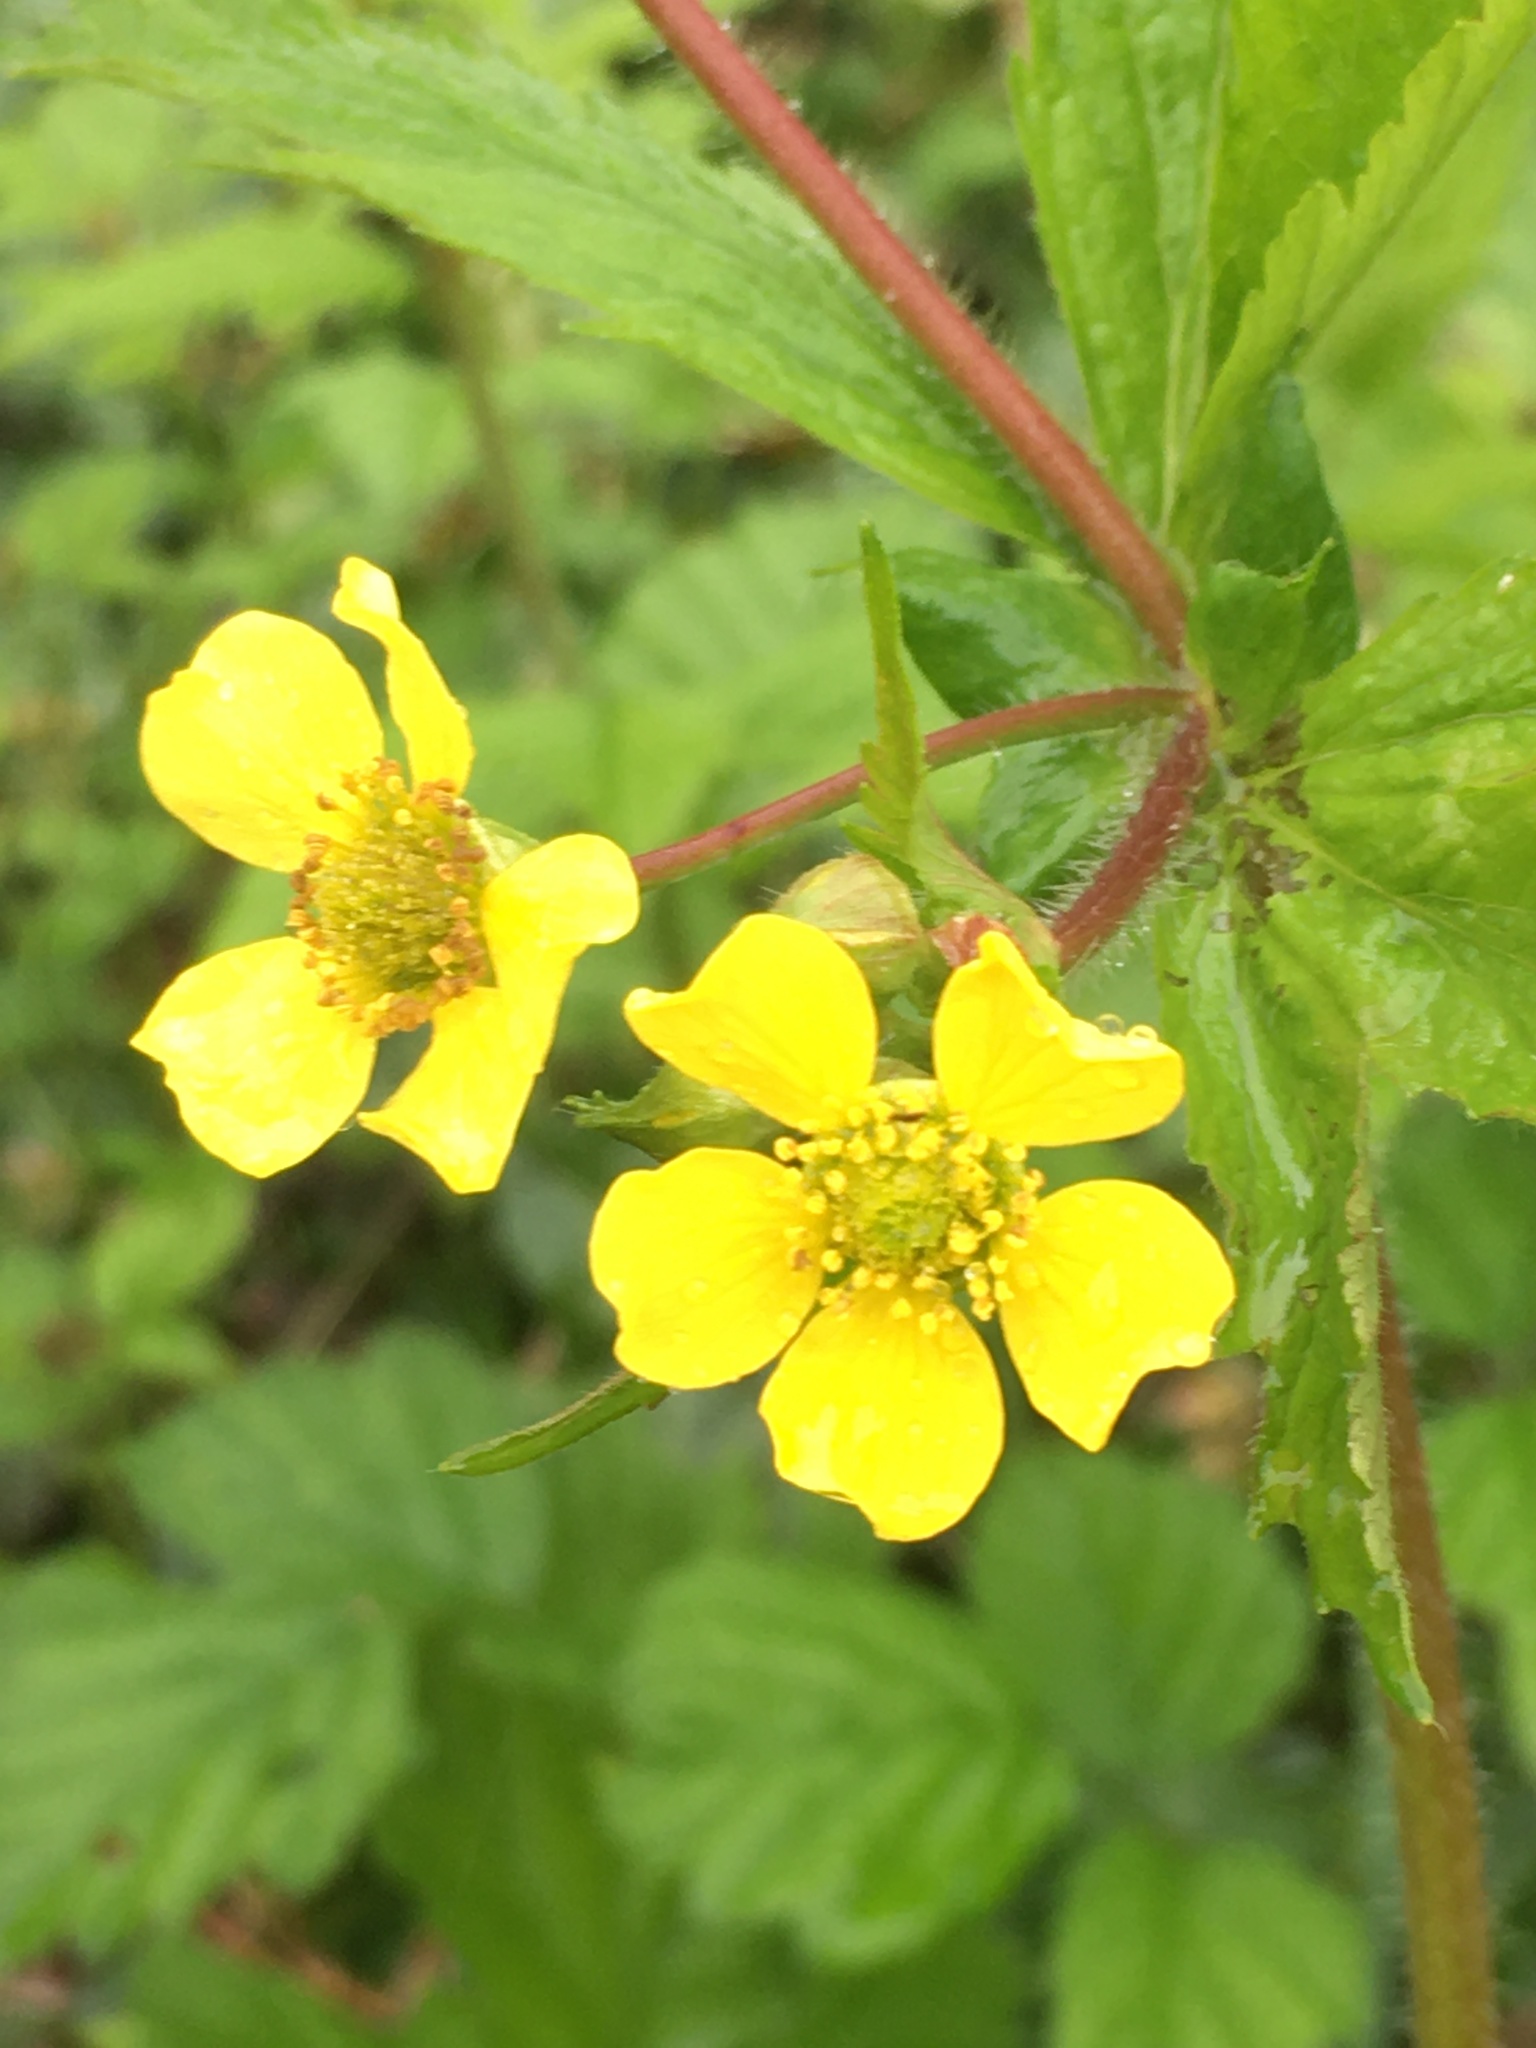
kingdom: Plantae
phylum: Tracheophyta
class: Magnoliopsida
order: Rosales
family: Rosaceae
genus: Geum
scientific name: Geum macrophyllum
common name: Large-leaved avens
